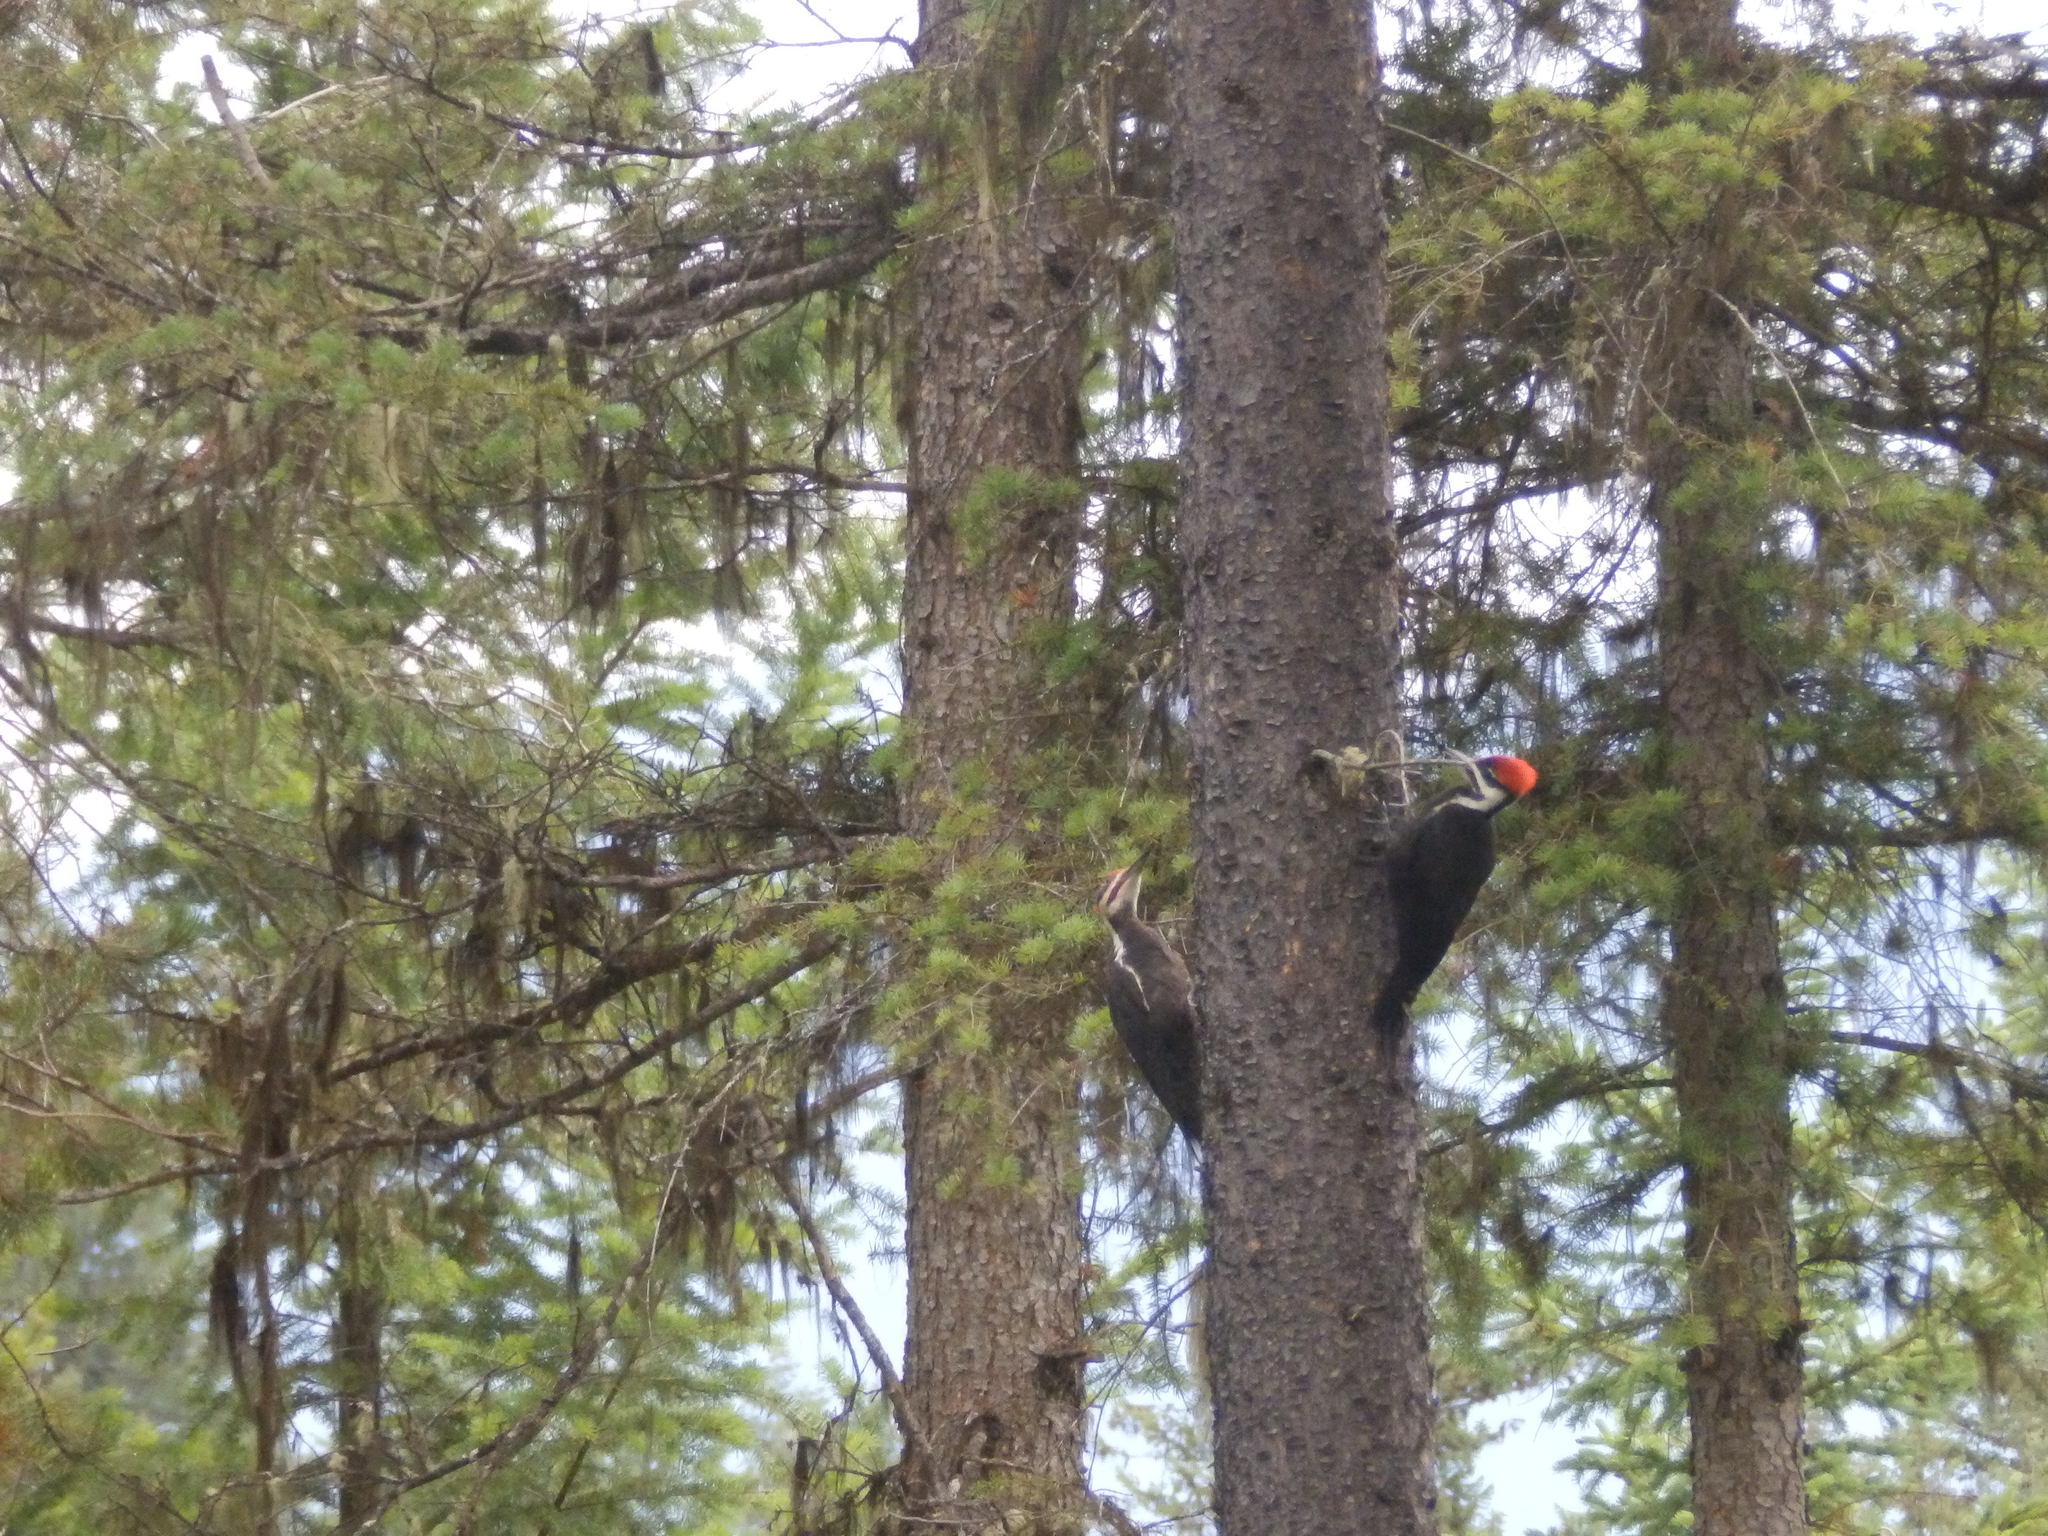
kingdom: Animalia
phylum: Chordata
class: Aves
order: Piciformes
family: Picidae
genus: Dryocopus
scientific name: Dryocopus pileatus
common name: Pileated woodpecker
